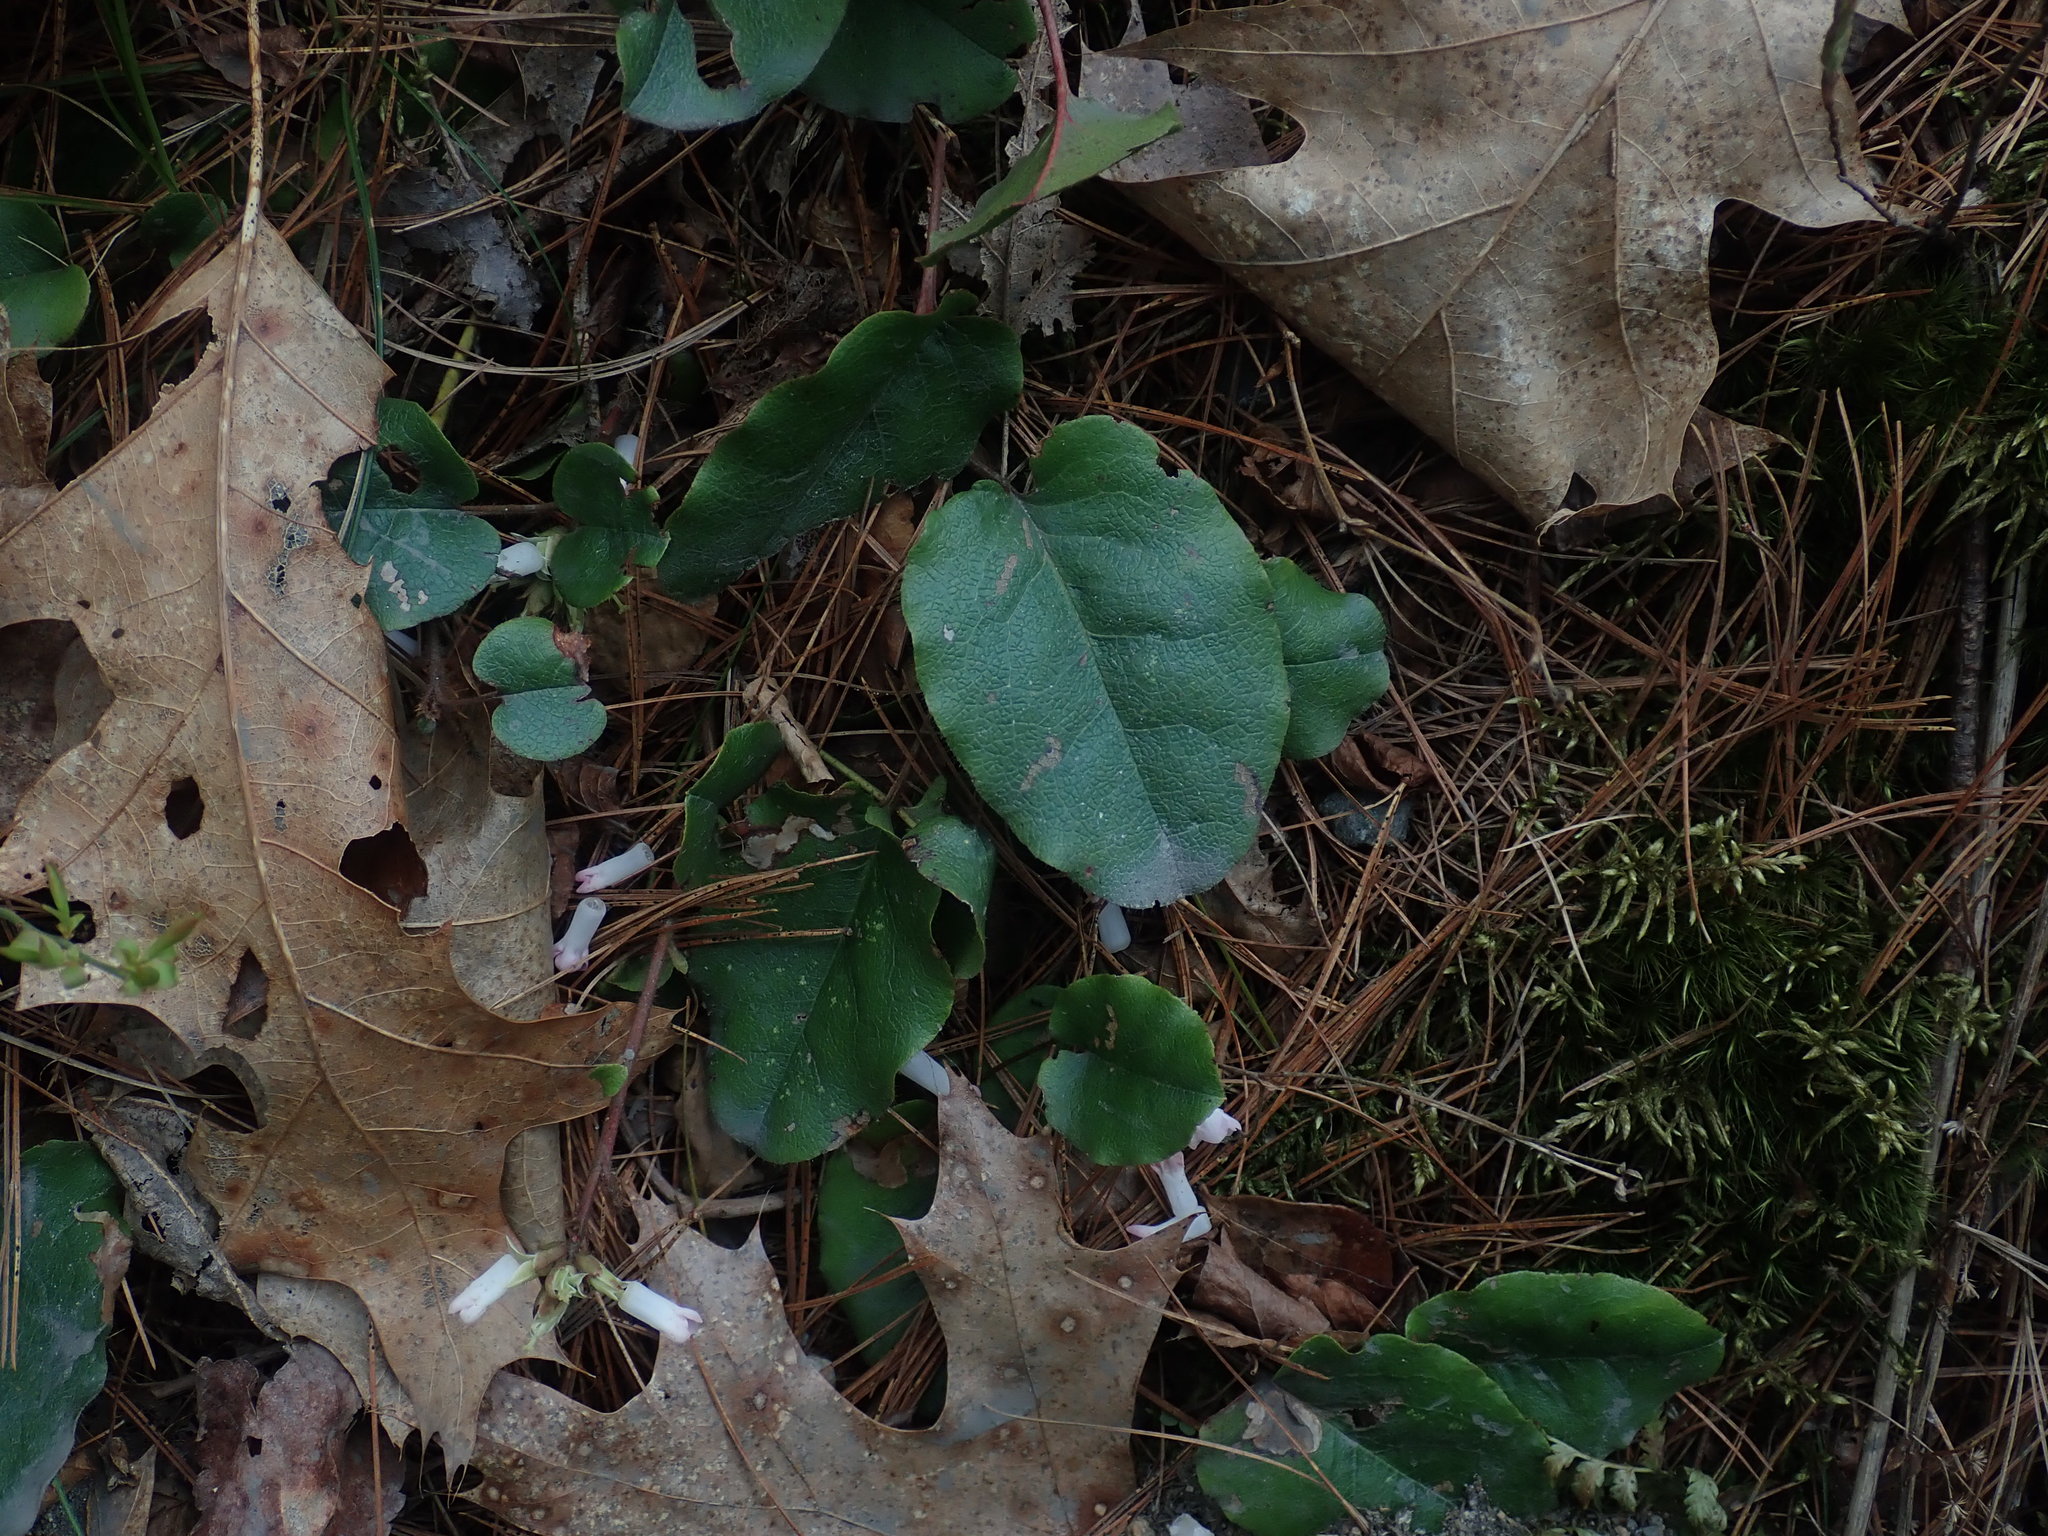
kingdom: Plantae
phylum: Tracheophyta
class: Magnoliopsida
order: Ericales
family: Ericaceae
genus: Epigaea
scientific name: Epigaea repens
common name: Gravelroot
